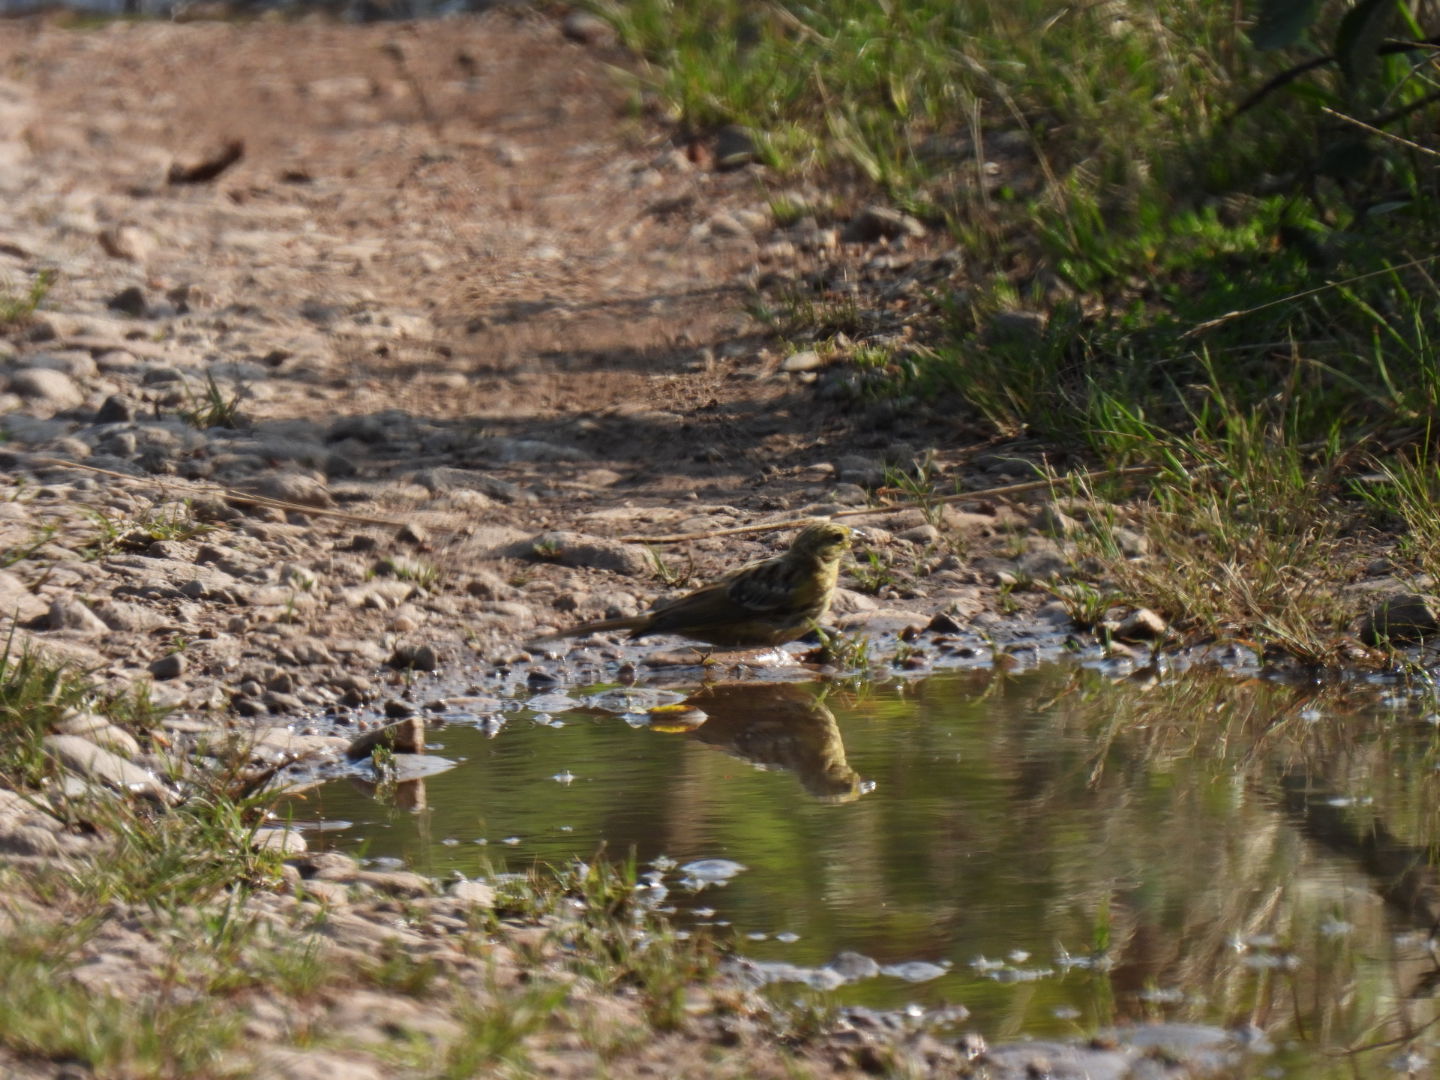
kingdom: Animalia
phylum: Chordata
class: Aves
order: Passeriformes
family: Emberizidae
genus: Emberiza
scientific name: Emberiza citrinella
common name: Yellowhammer
